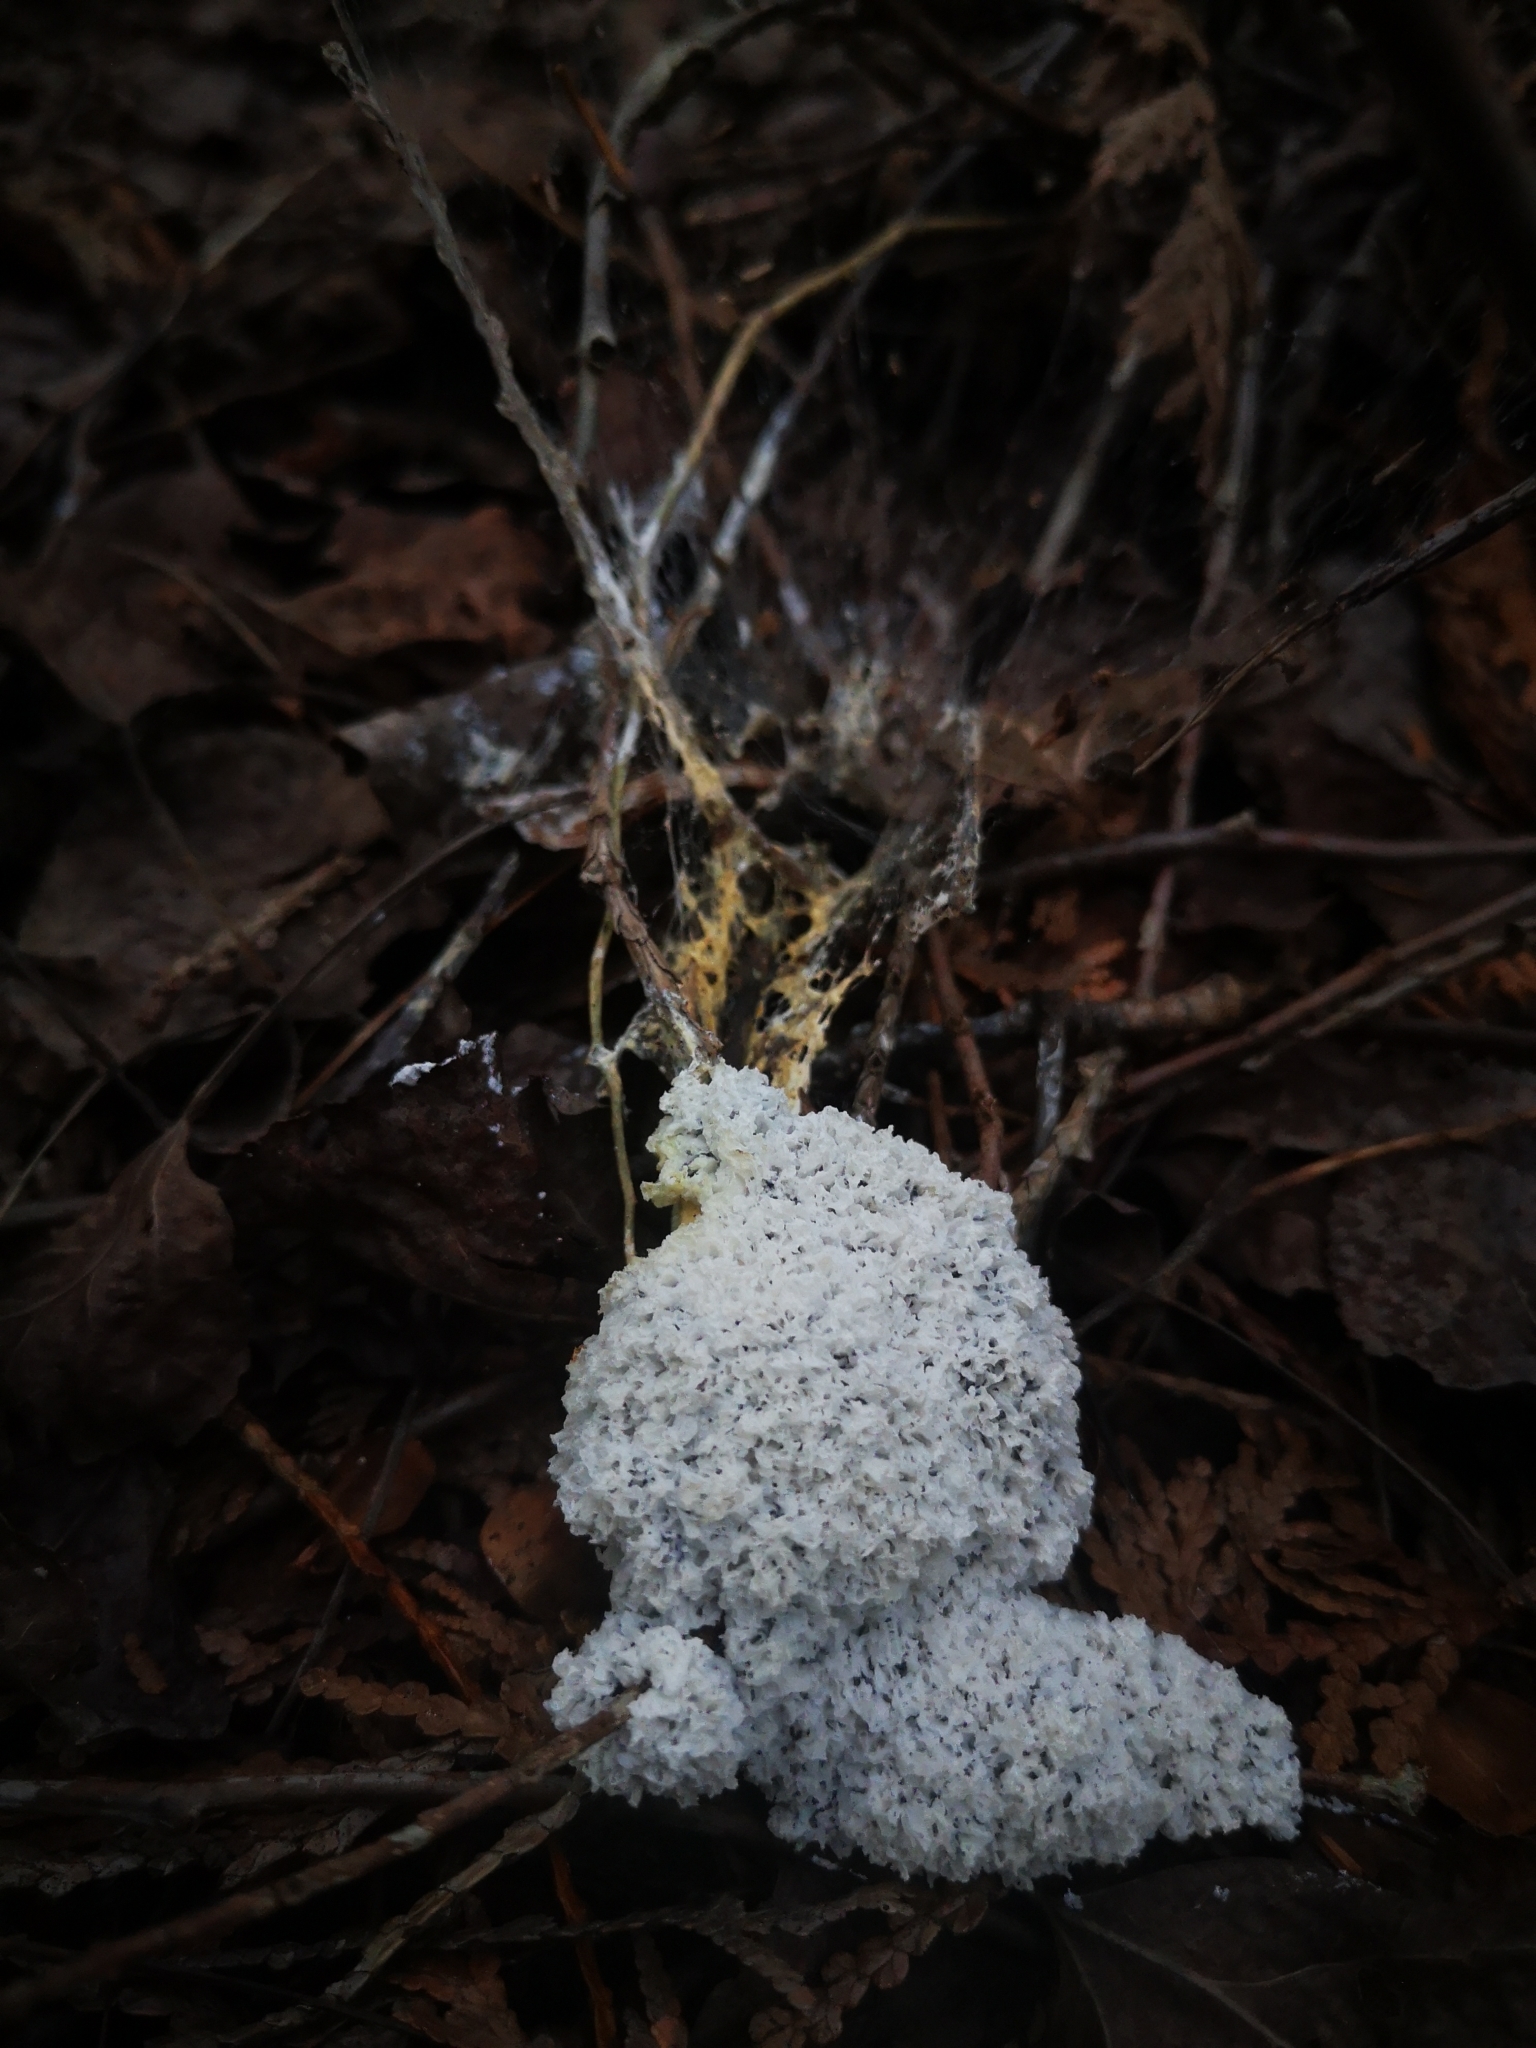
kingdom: Protozoa
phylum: Mycetozoa
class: Myxomycetes
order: Physarales
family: Physaraceae
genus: Didymium
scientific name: Didymium
